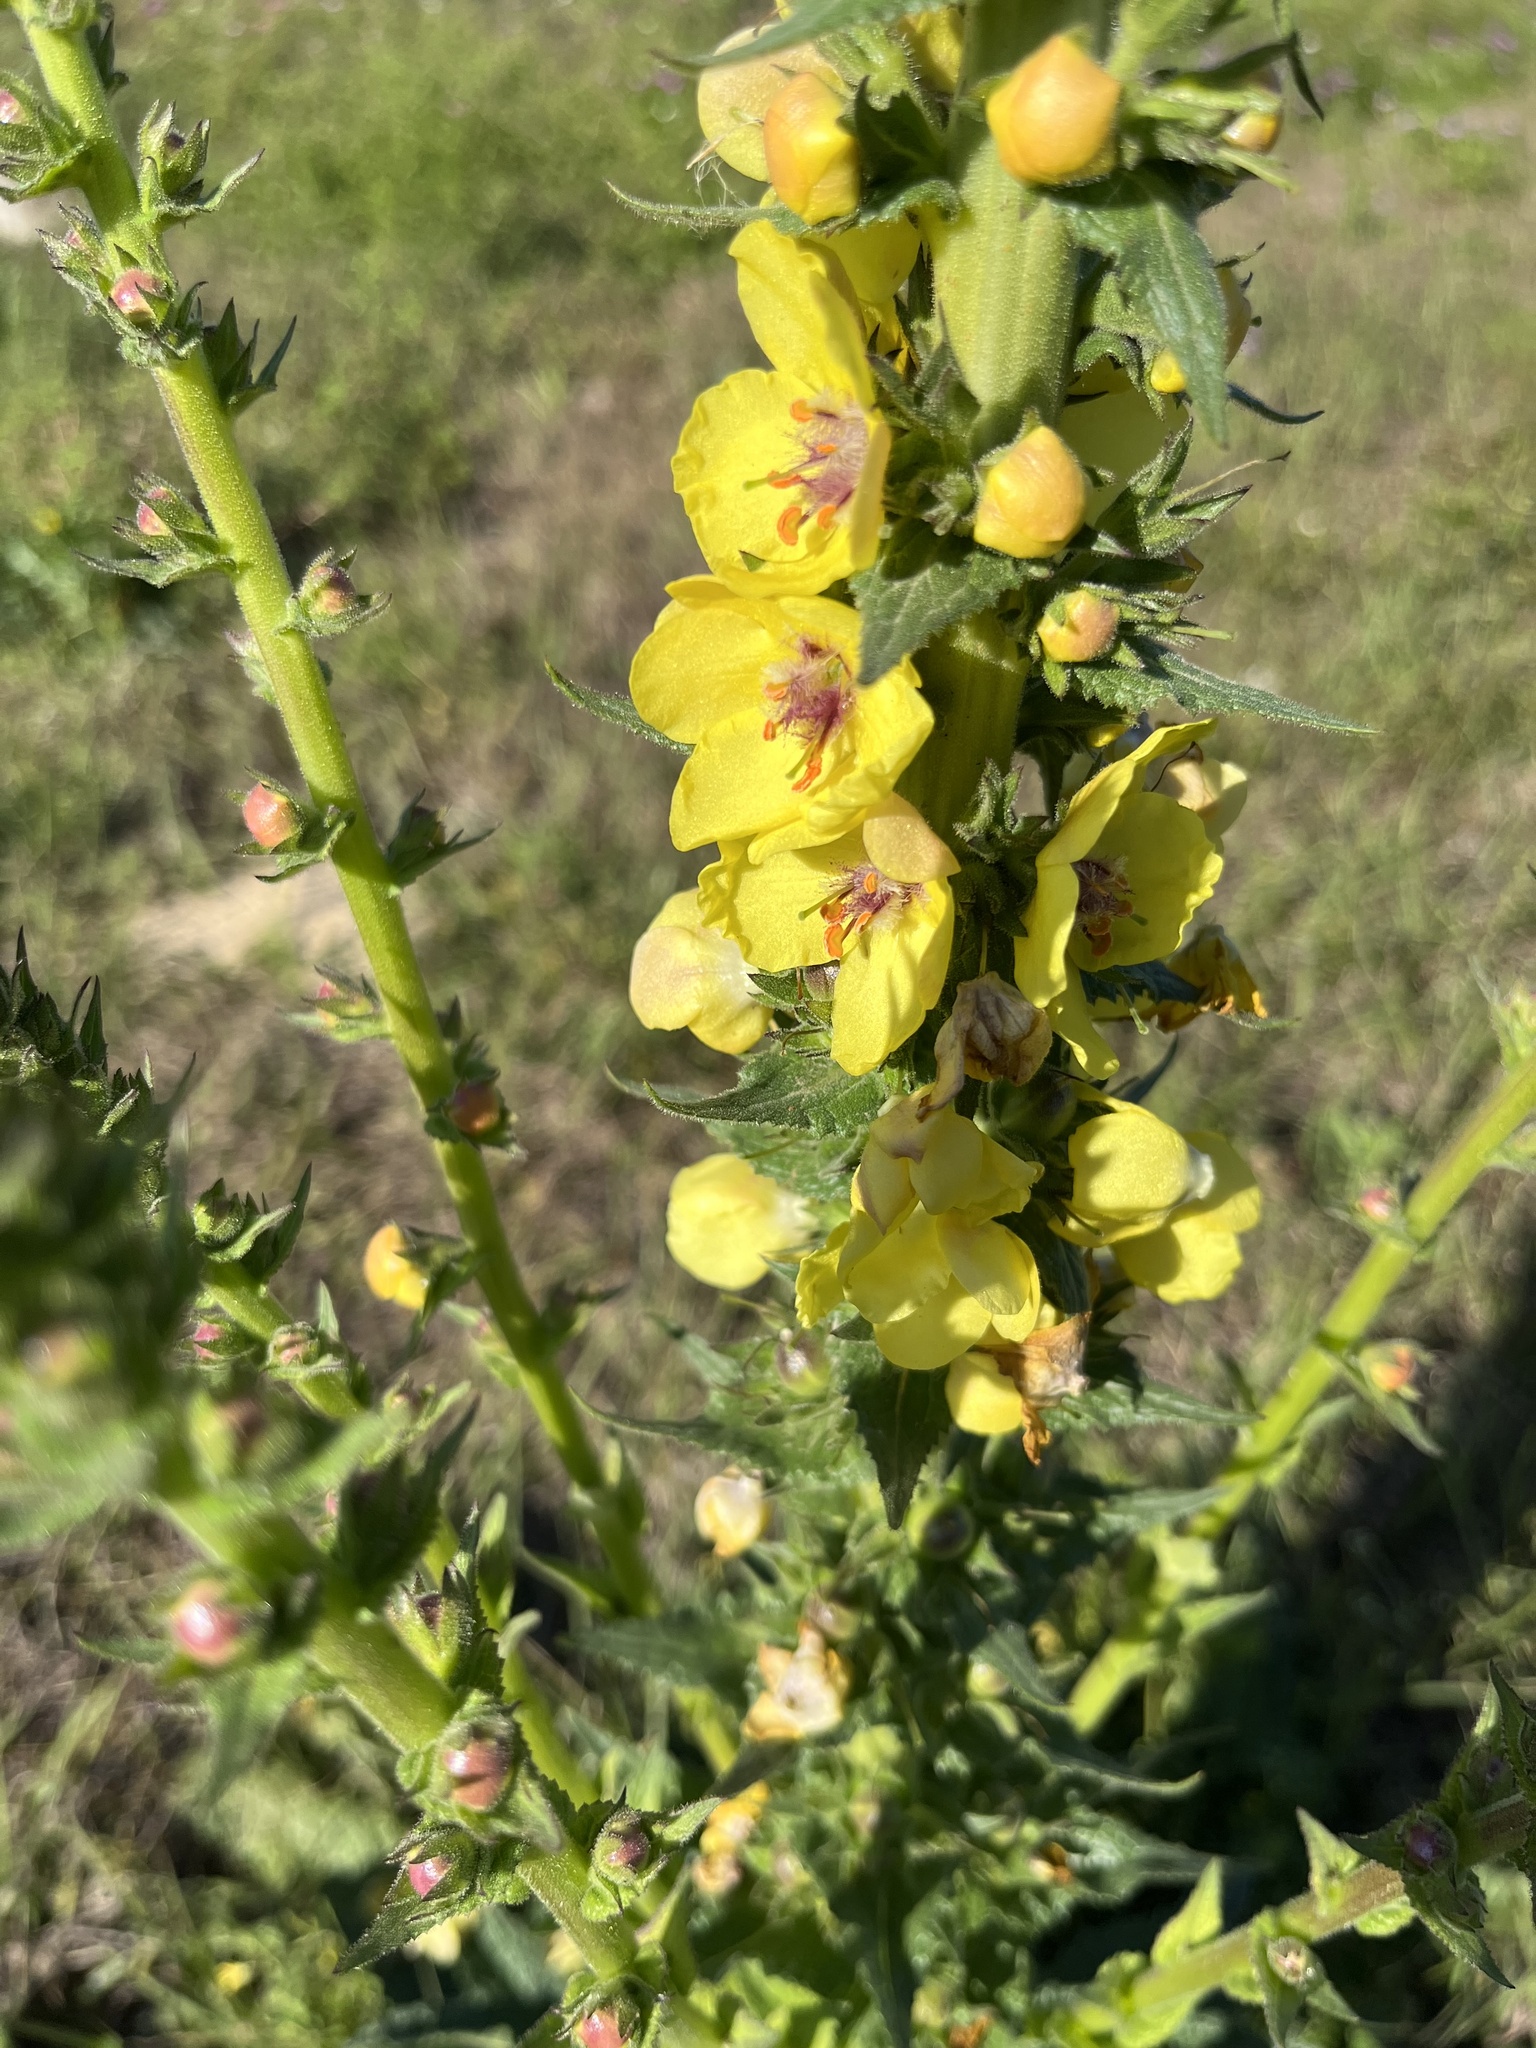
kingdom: Plantae
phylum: Tracheophyta
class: Magnoliopsida
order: Lamiales
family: Scrophulariaceae
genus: Verbascum
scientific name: Verbascum virgatum
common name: Twiggy mullein
